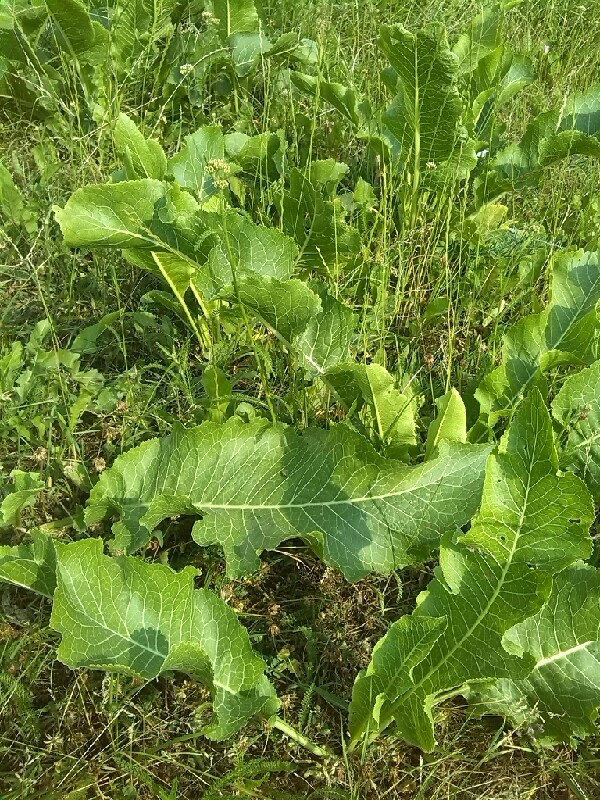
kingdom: Plantae
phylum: Tracheophyta
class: Magnoliopsida
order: Brassicales
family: Brassicaceae
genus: Armoracia
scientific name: Armoracia rusticana
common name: Horseradish
